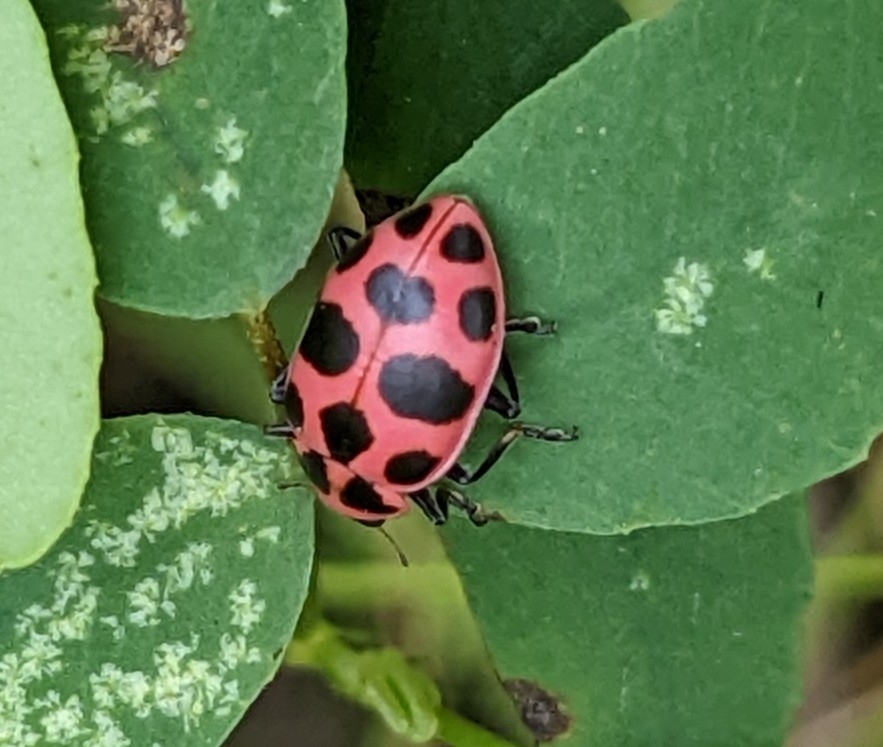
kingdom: Animalia
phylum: Arthropoda
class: Insecta
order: Coleoptera
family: Coccinellidae
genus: Coleomegilla
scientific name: Coleomegilla maculata
